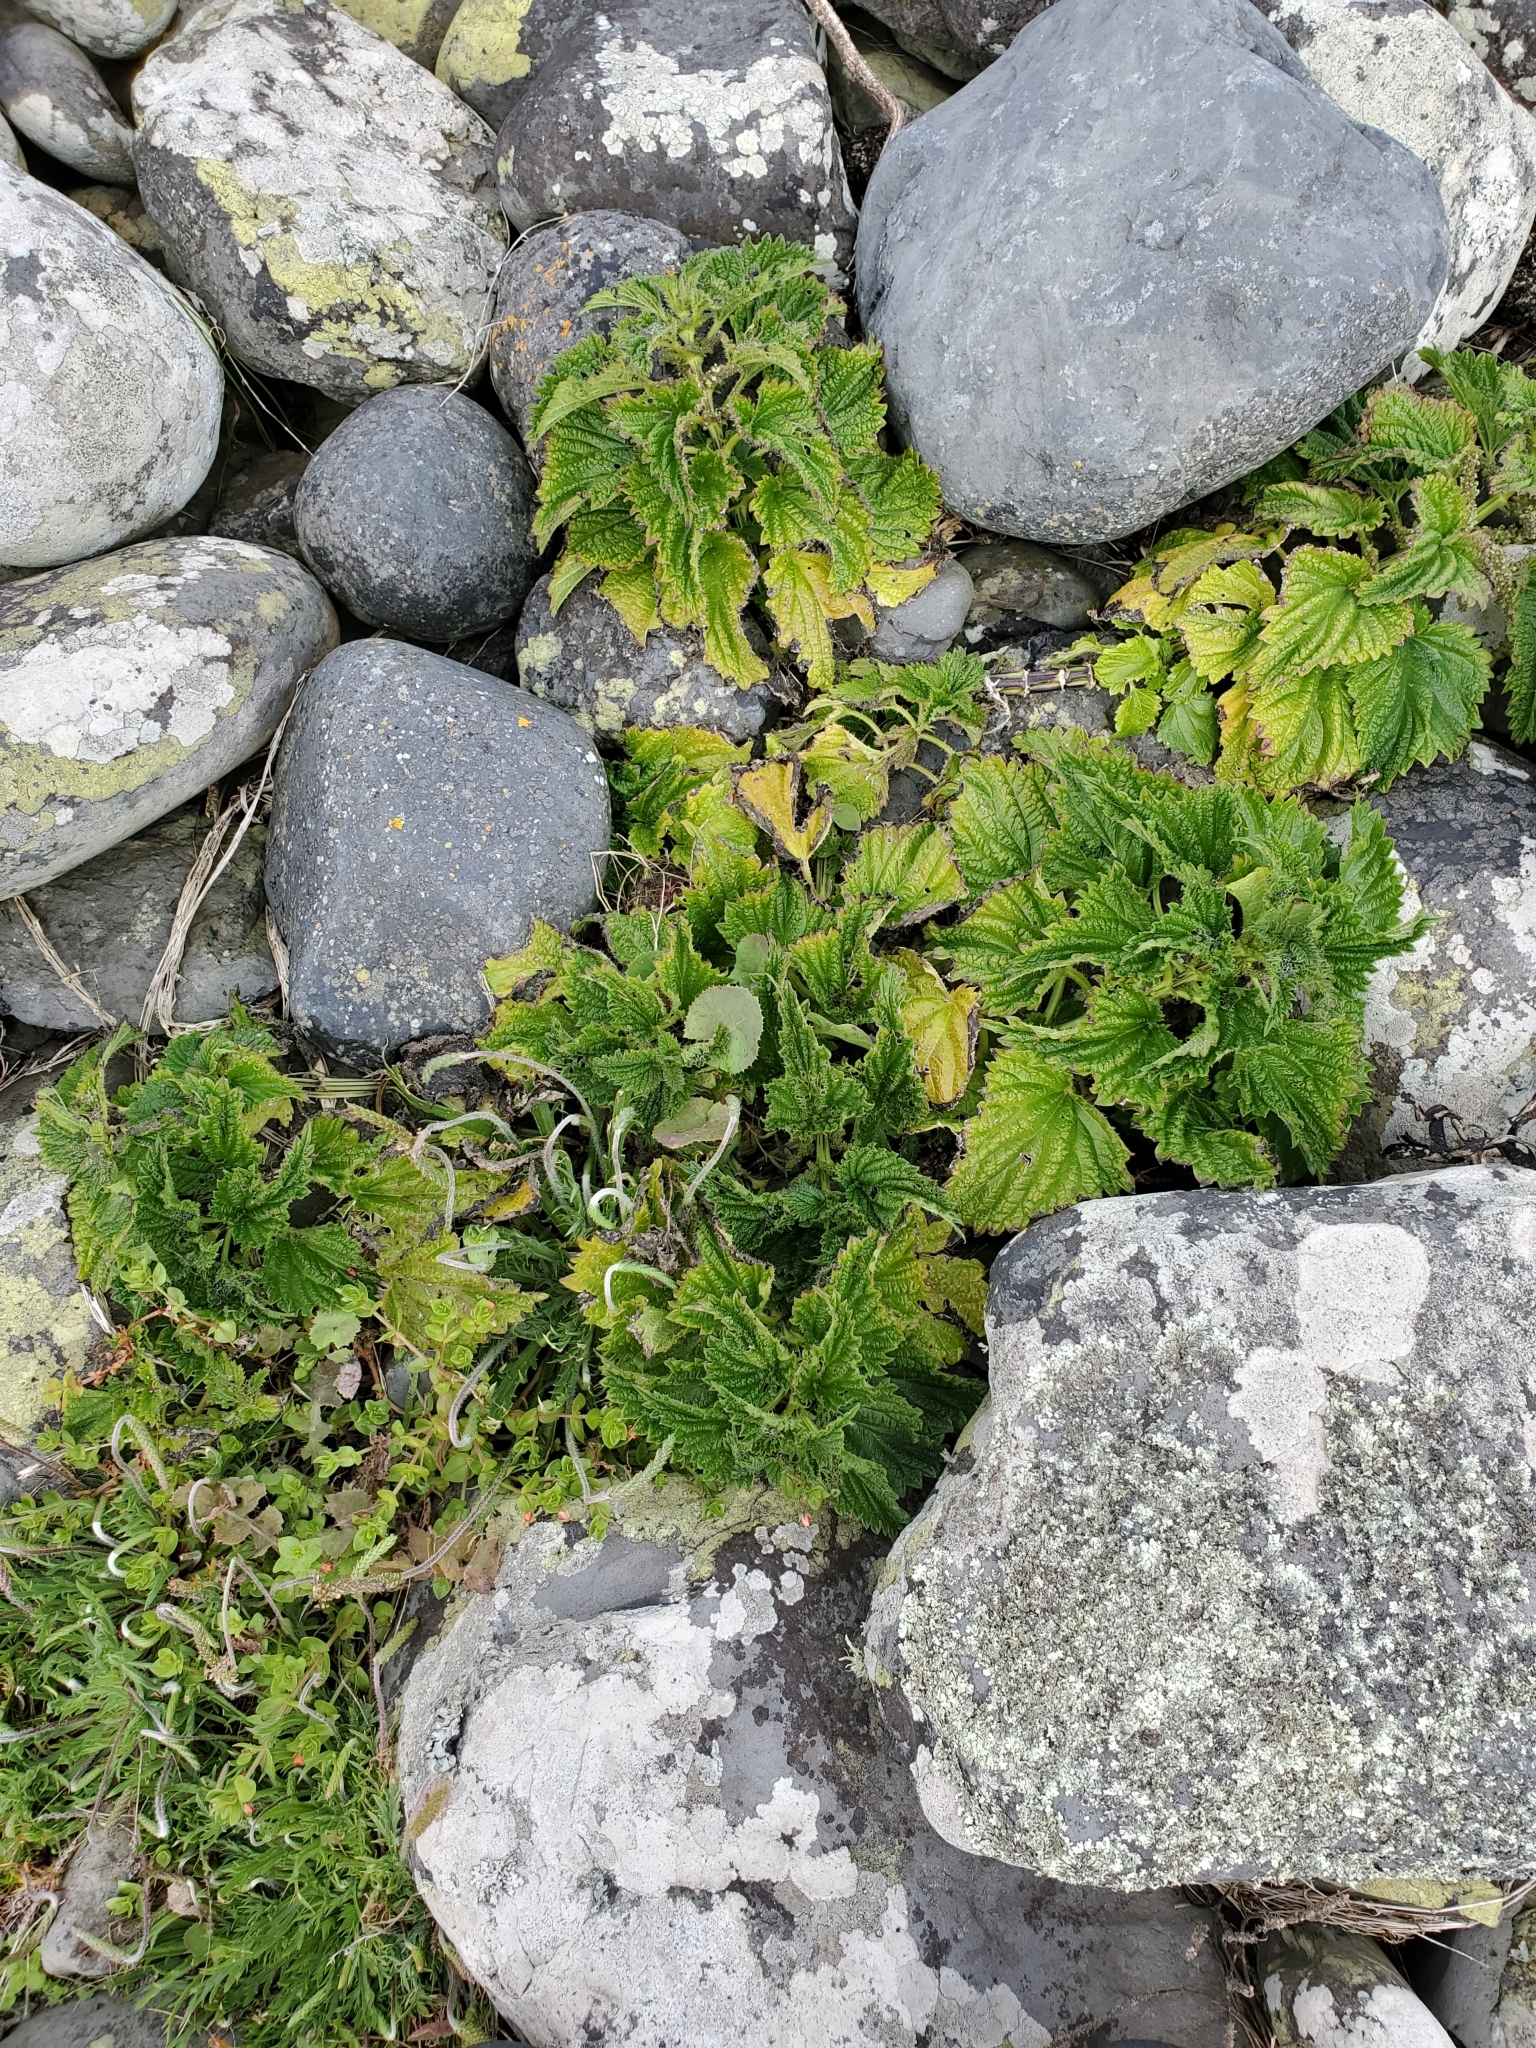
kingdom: Plantae
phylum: Tracheophyta
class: Magnoliopsida
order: Rosales
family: Urticaceae
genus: Urtica
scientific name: Urtica australis
